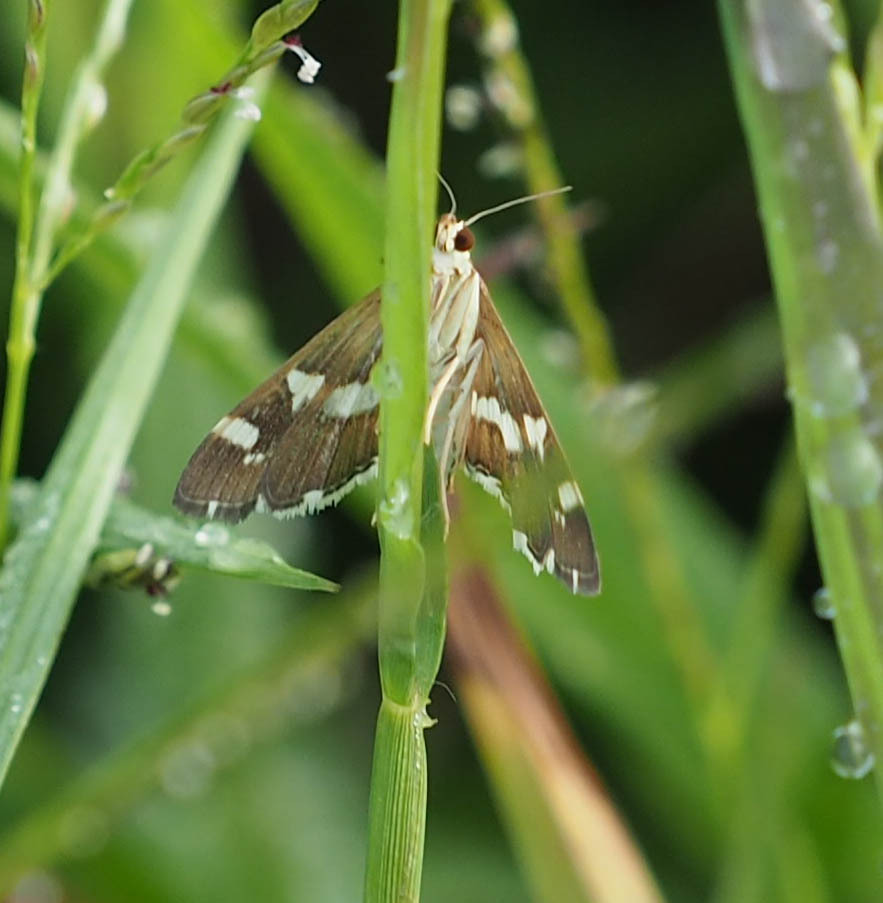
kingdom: Animalia
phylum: Arthropoda
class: Insecta
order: Lepidoptera
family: Crambidae
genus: Spoladea
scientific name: Spoladea recurvalis
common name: Beet webworm moth
